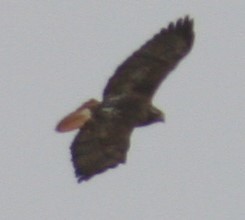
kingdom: Animalia
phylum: Chordata
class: Aves
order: Accipitriformes
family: Accipitridae
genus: Buteo
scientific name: Buteo jamaicensis
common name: Red-tailed hawk
